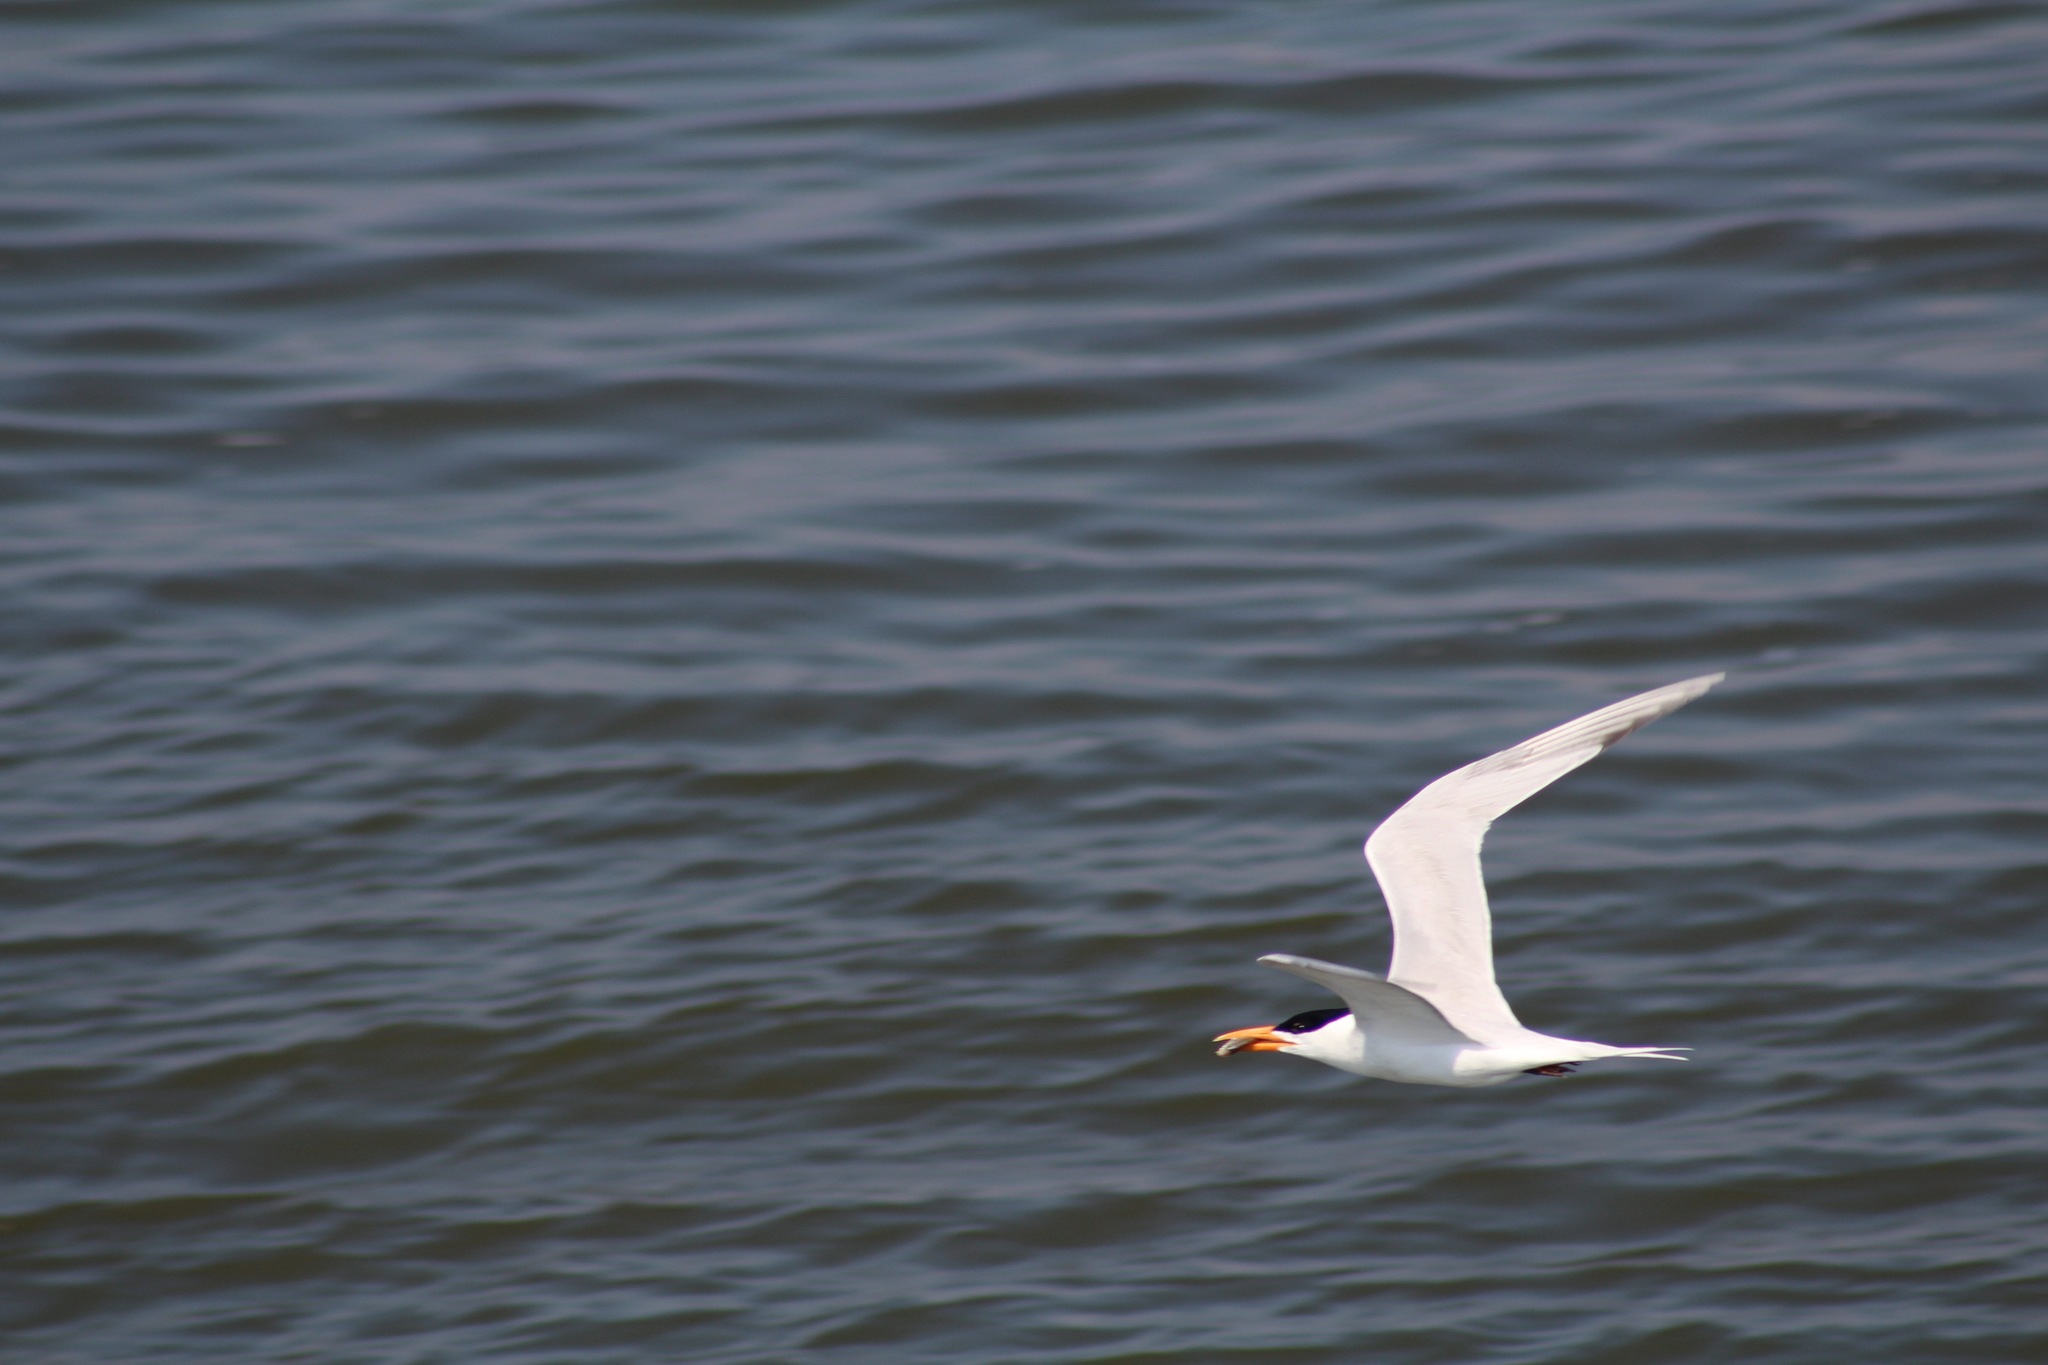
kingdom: Animalia
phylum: Chordata
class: Aves
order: Charadriiformes
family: Laridae
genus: Thalasseus
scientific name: Thalasseus maximus
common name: Royal tern
